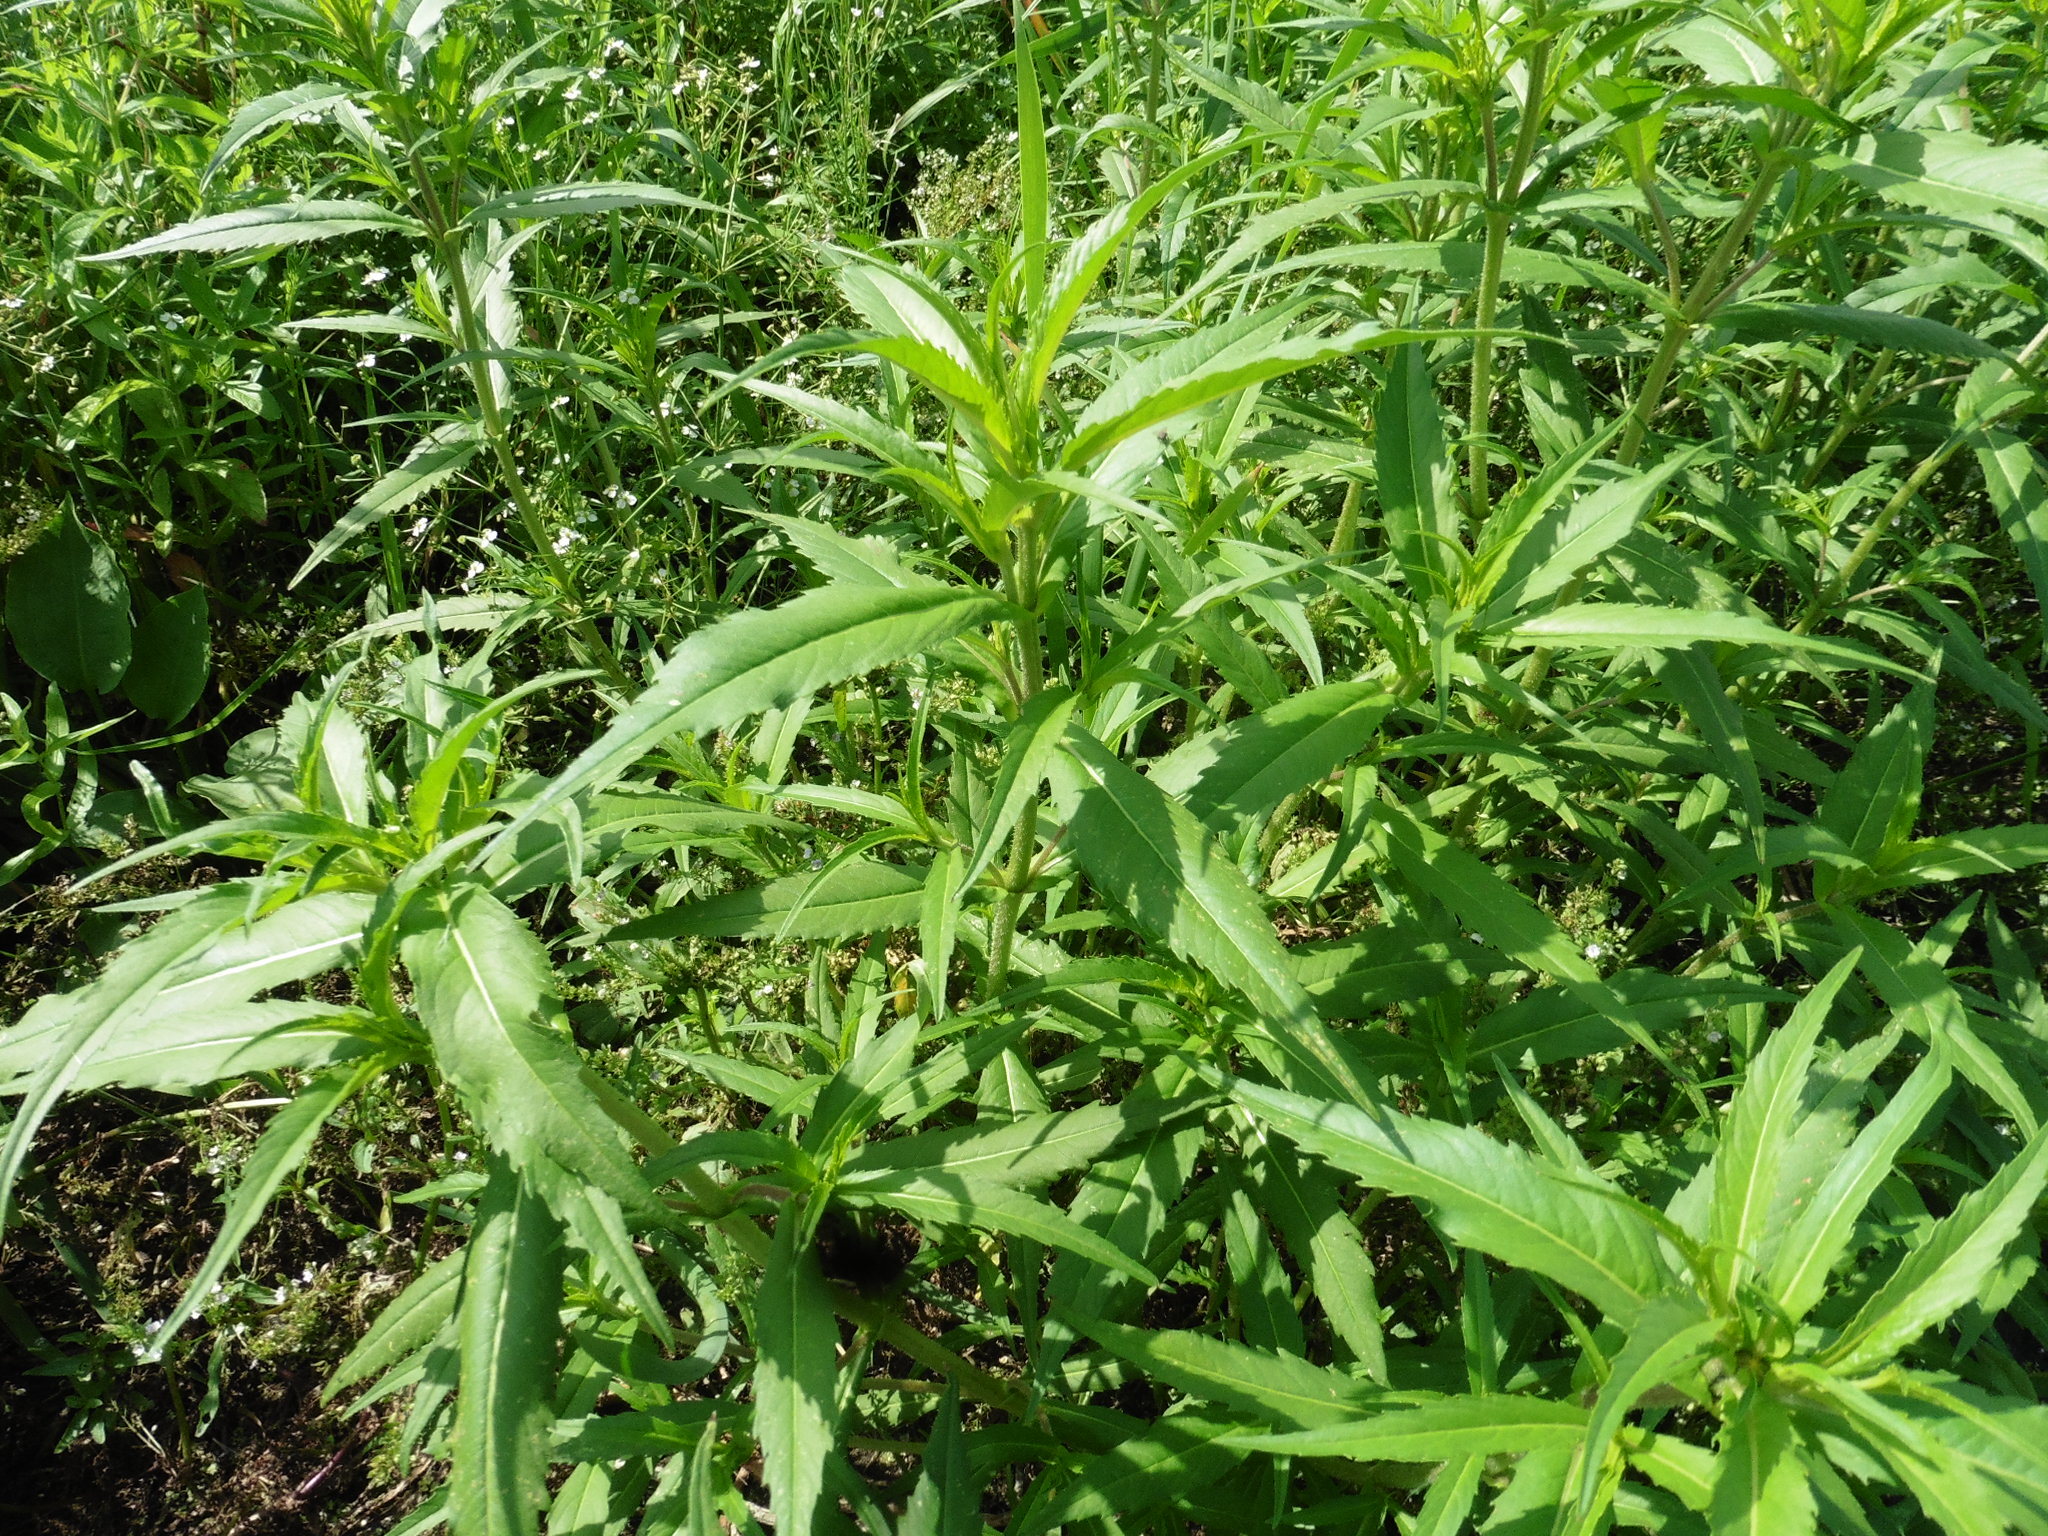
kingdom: Plantae
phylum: Tracheophyta
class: Magnoliopsida
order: Asterales
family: Asteraceae
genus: Bidens
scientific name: Bidens cernua
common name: Nodding bur-marigold
